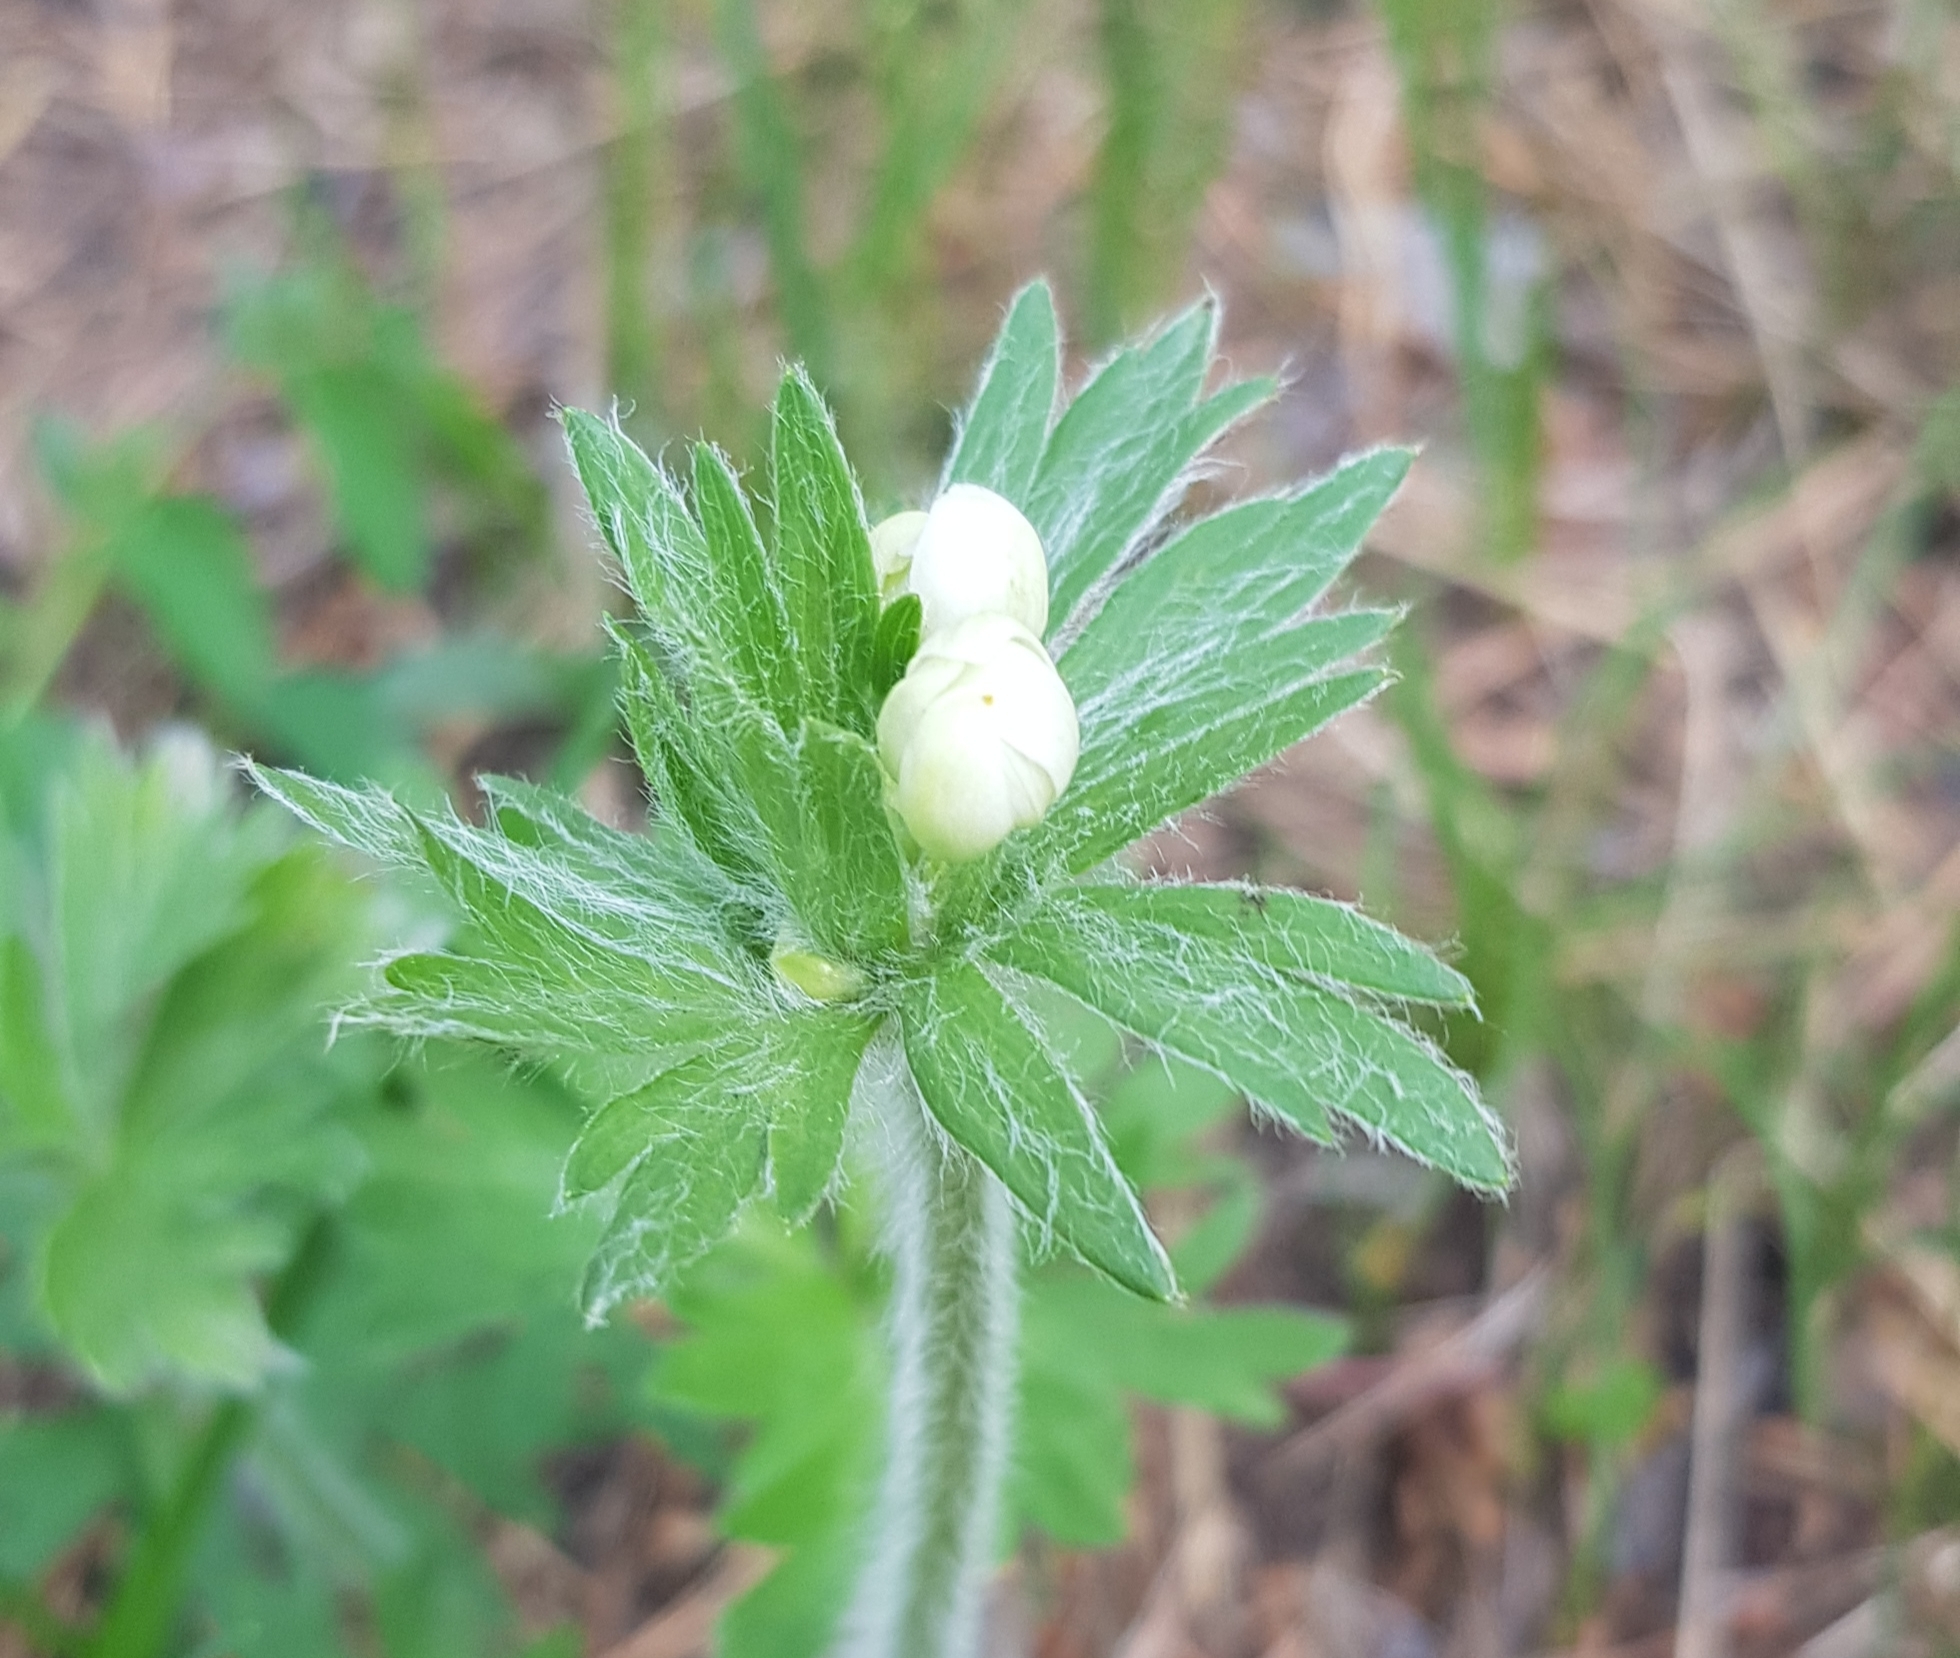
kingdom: Plantae
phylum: Tracheophyta
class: Magnoliopsida
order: Ranunculales
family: Ranunculaceae
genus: Anemonastrum
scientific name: Anemonastrum narcissiflorum
